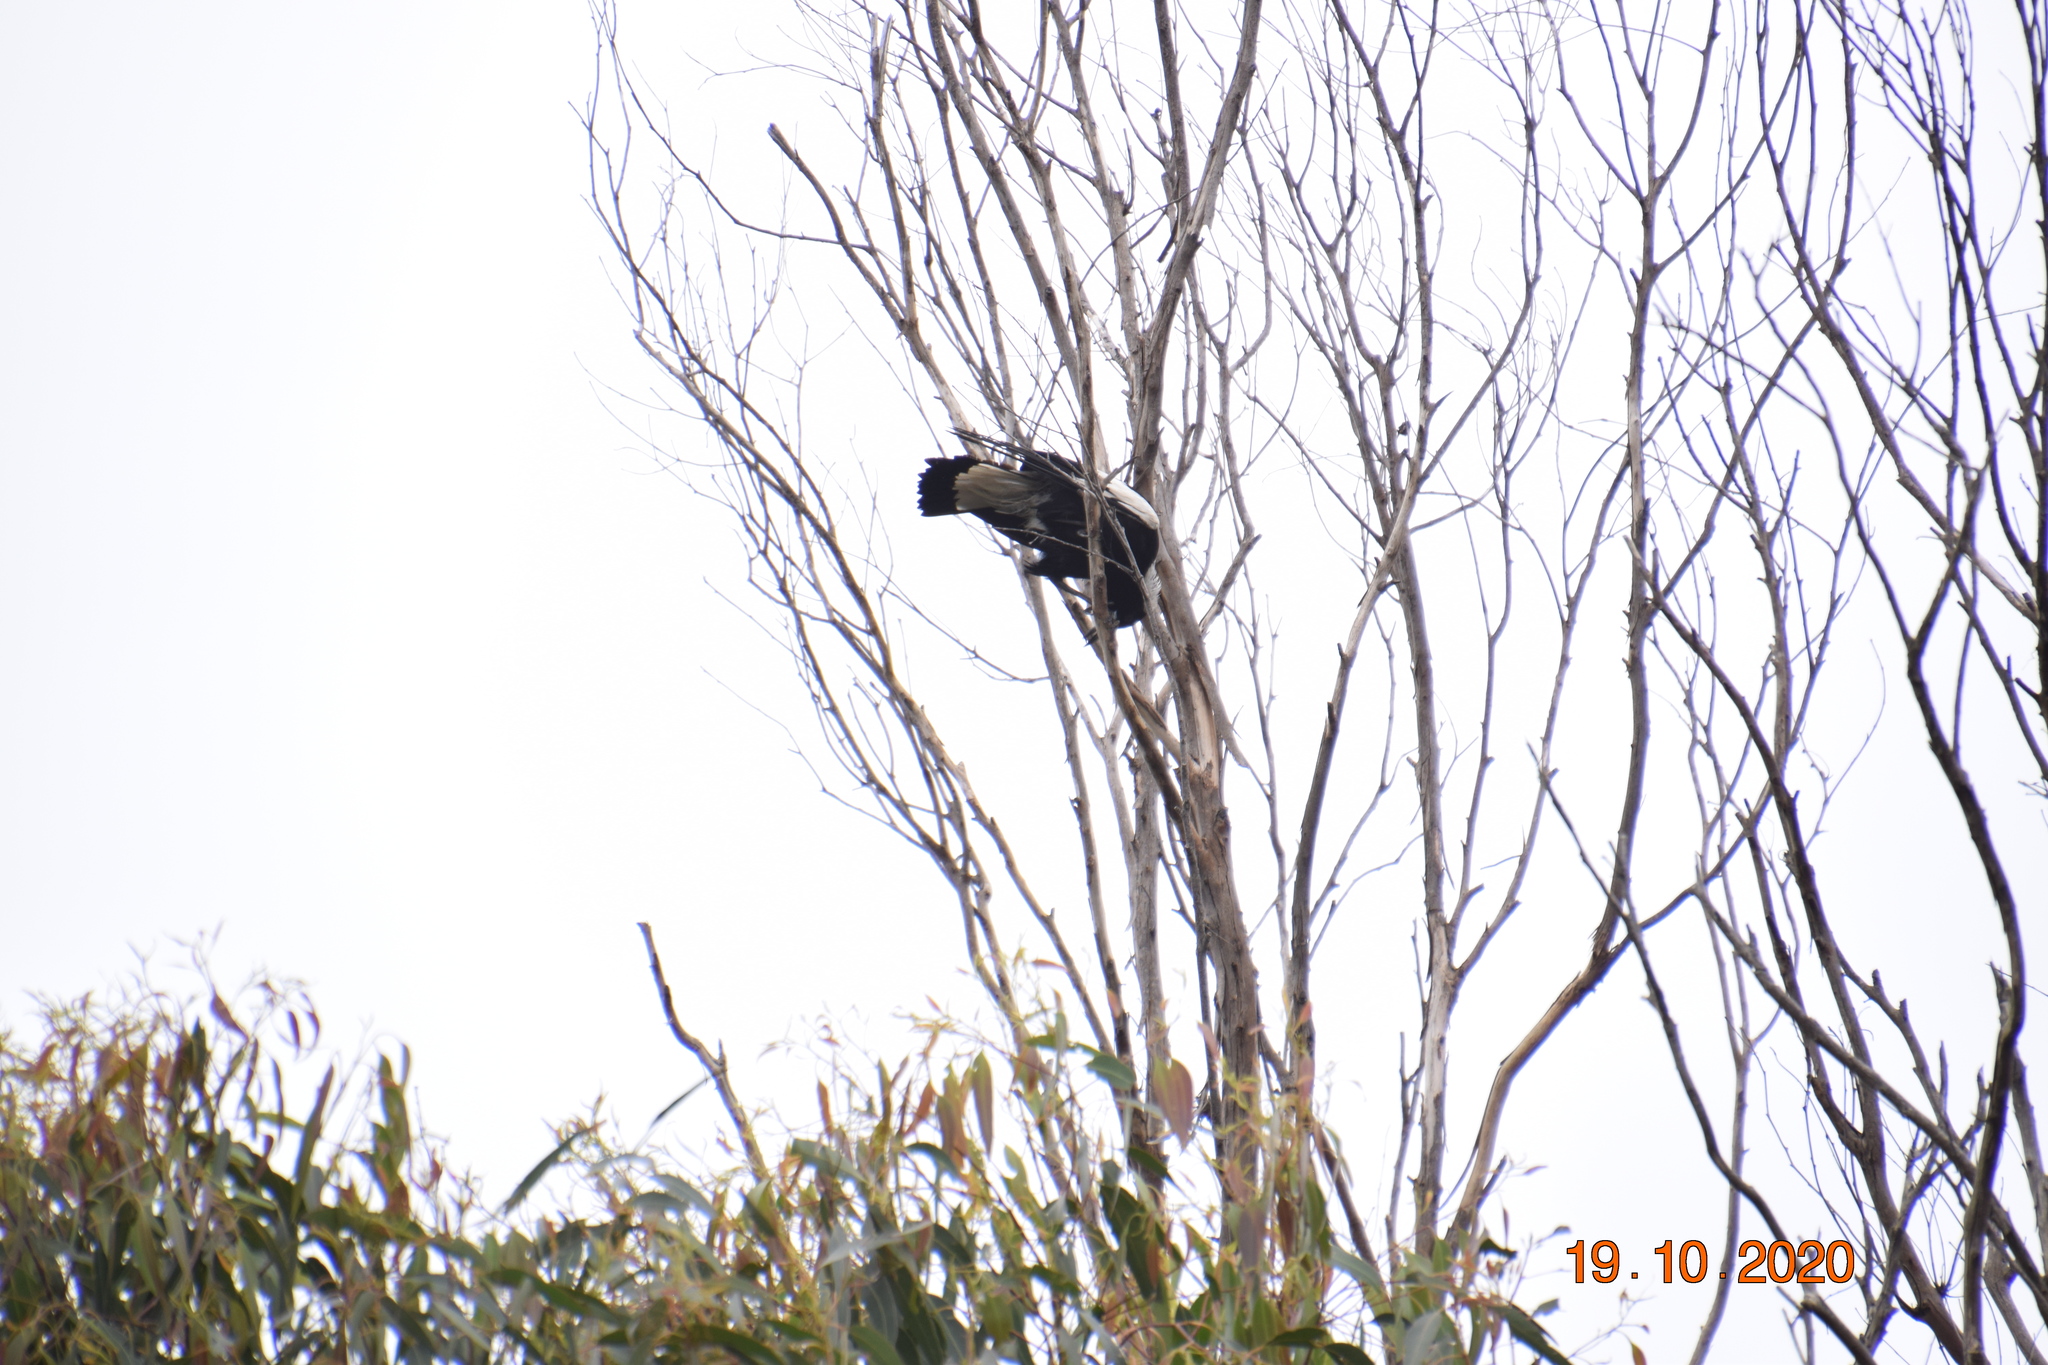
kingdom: Animalia
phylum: Chordata
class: Aves
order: Passeriformes
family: Cracticidae
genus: Gymnorhina
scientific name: Gymnorhina tibicen
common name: Australian magpie
